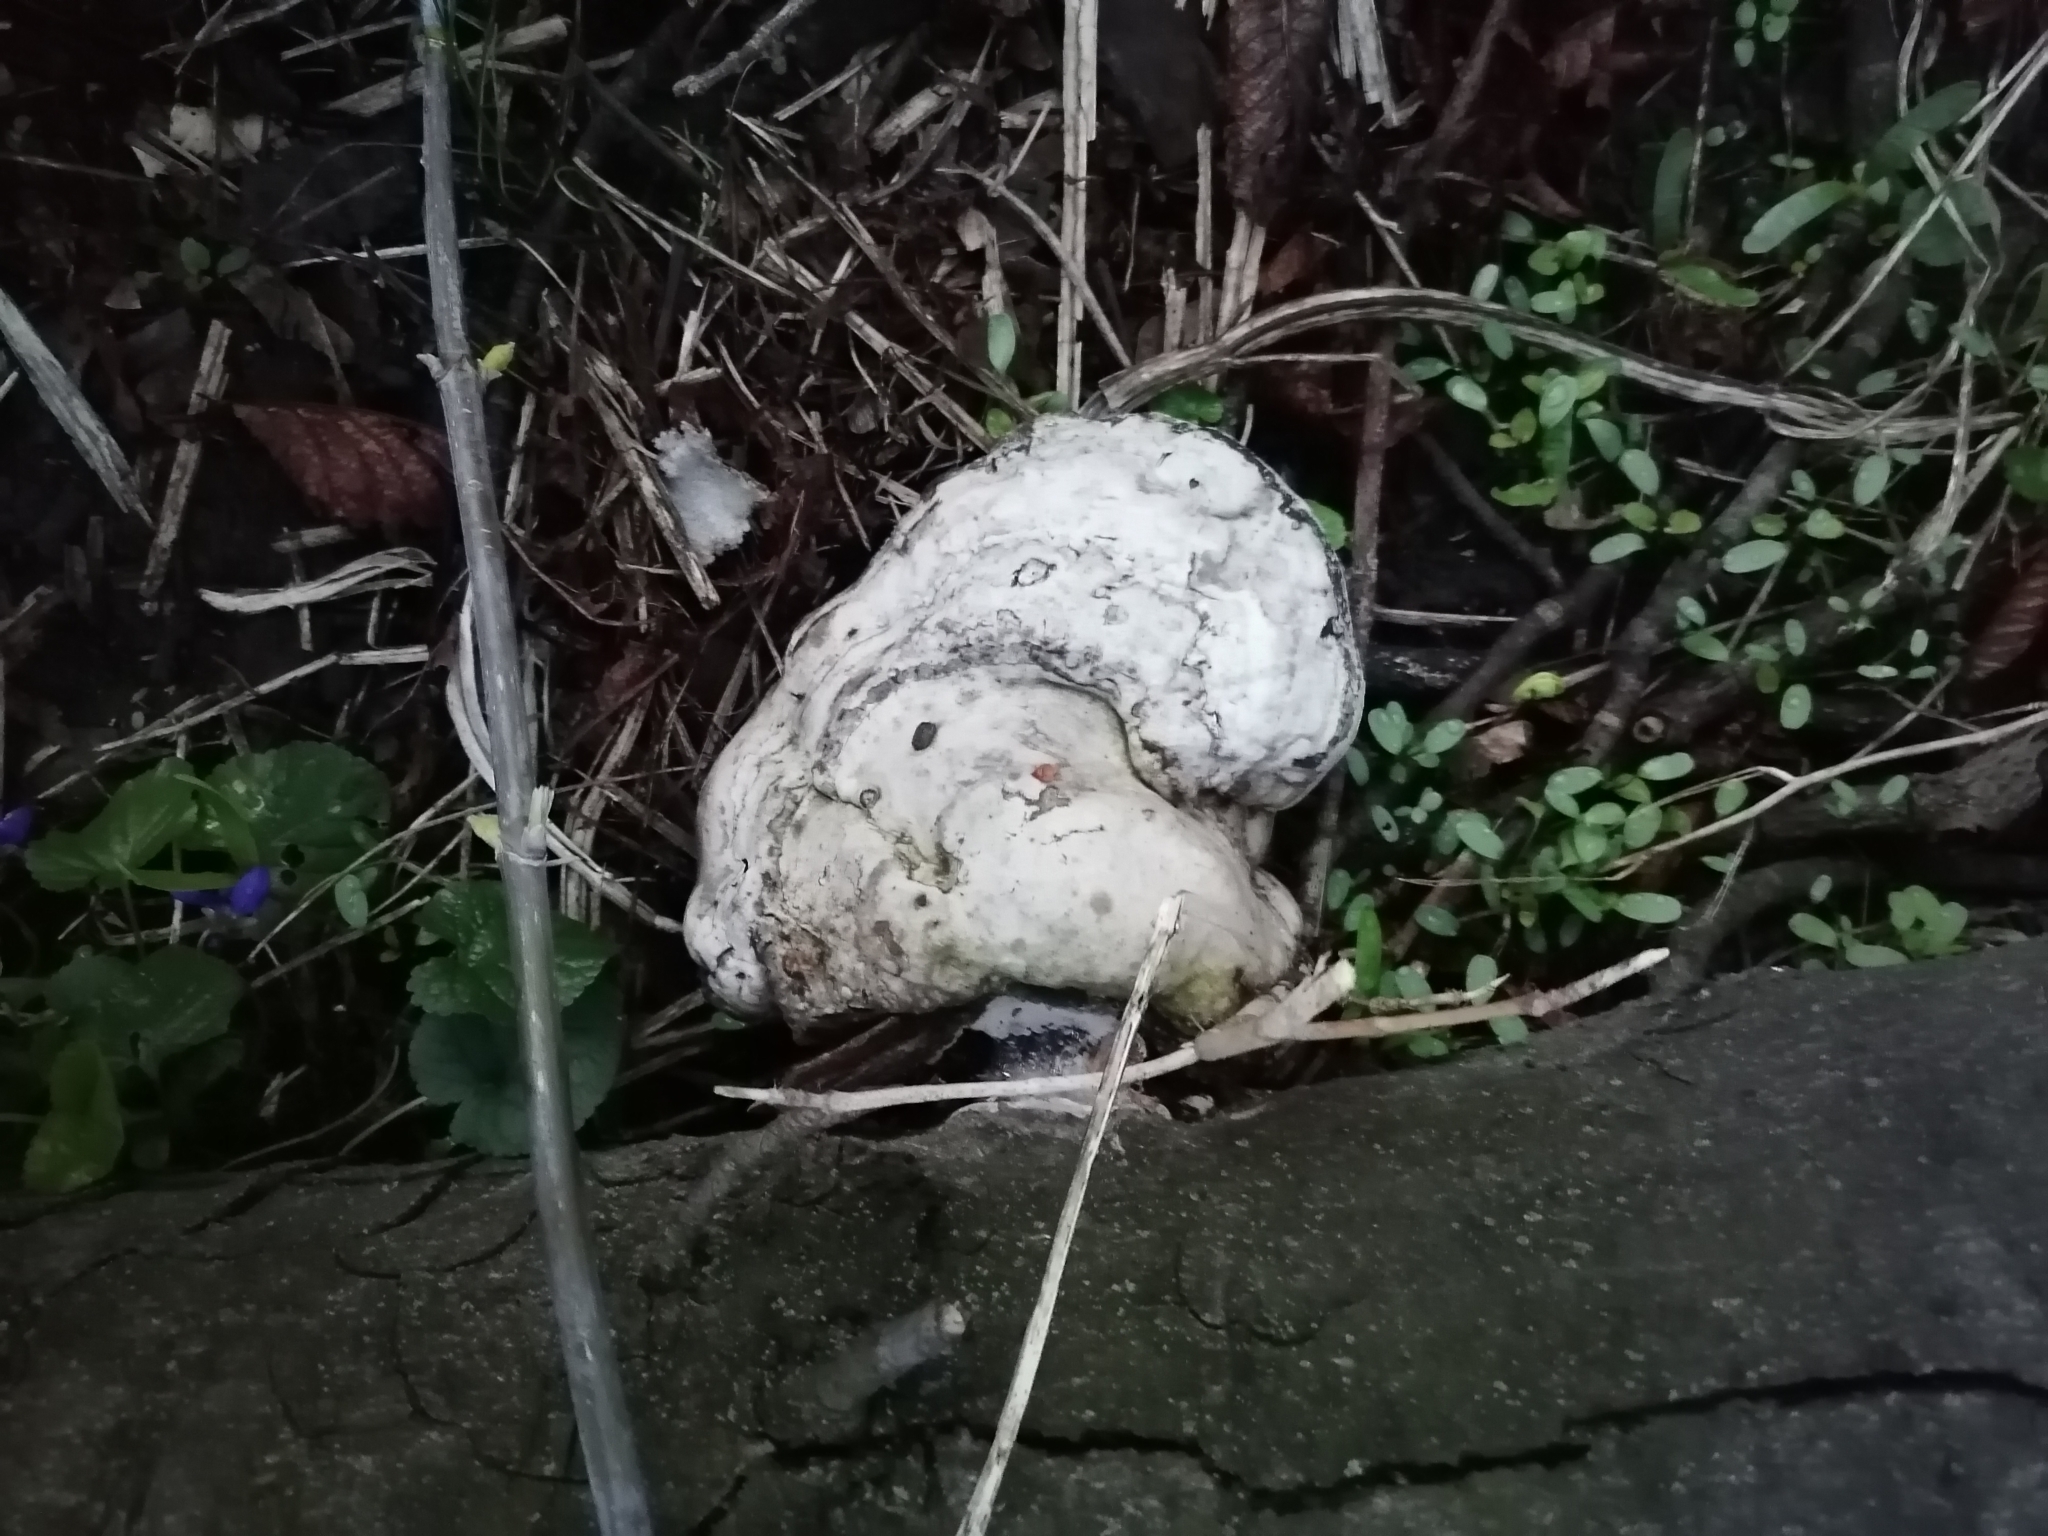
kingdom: Fungi
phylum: Basidiomycota
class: Agaricomycetes
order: Polyporales
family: Polyporaceae
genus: Fomes
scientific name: Fomes fomentarius
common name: Hoof fungus
